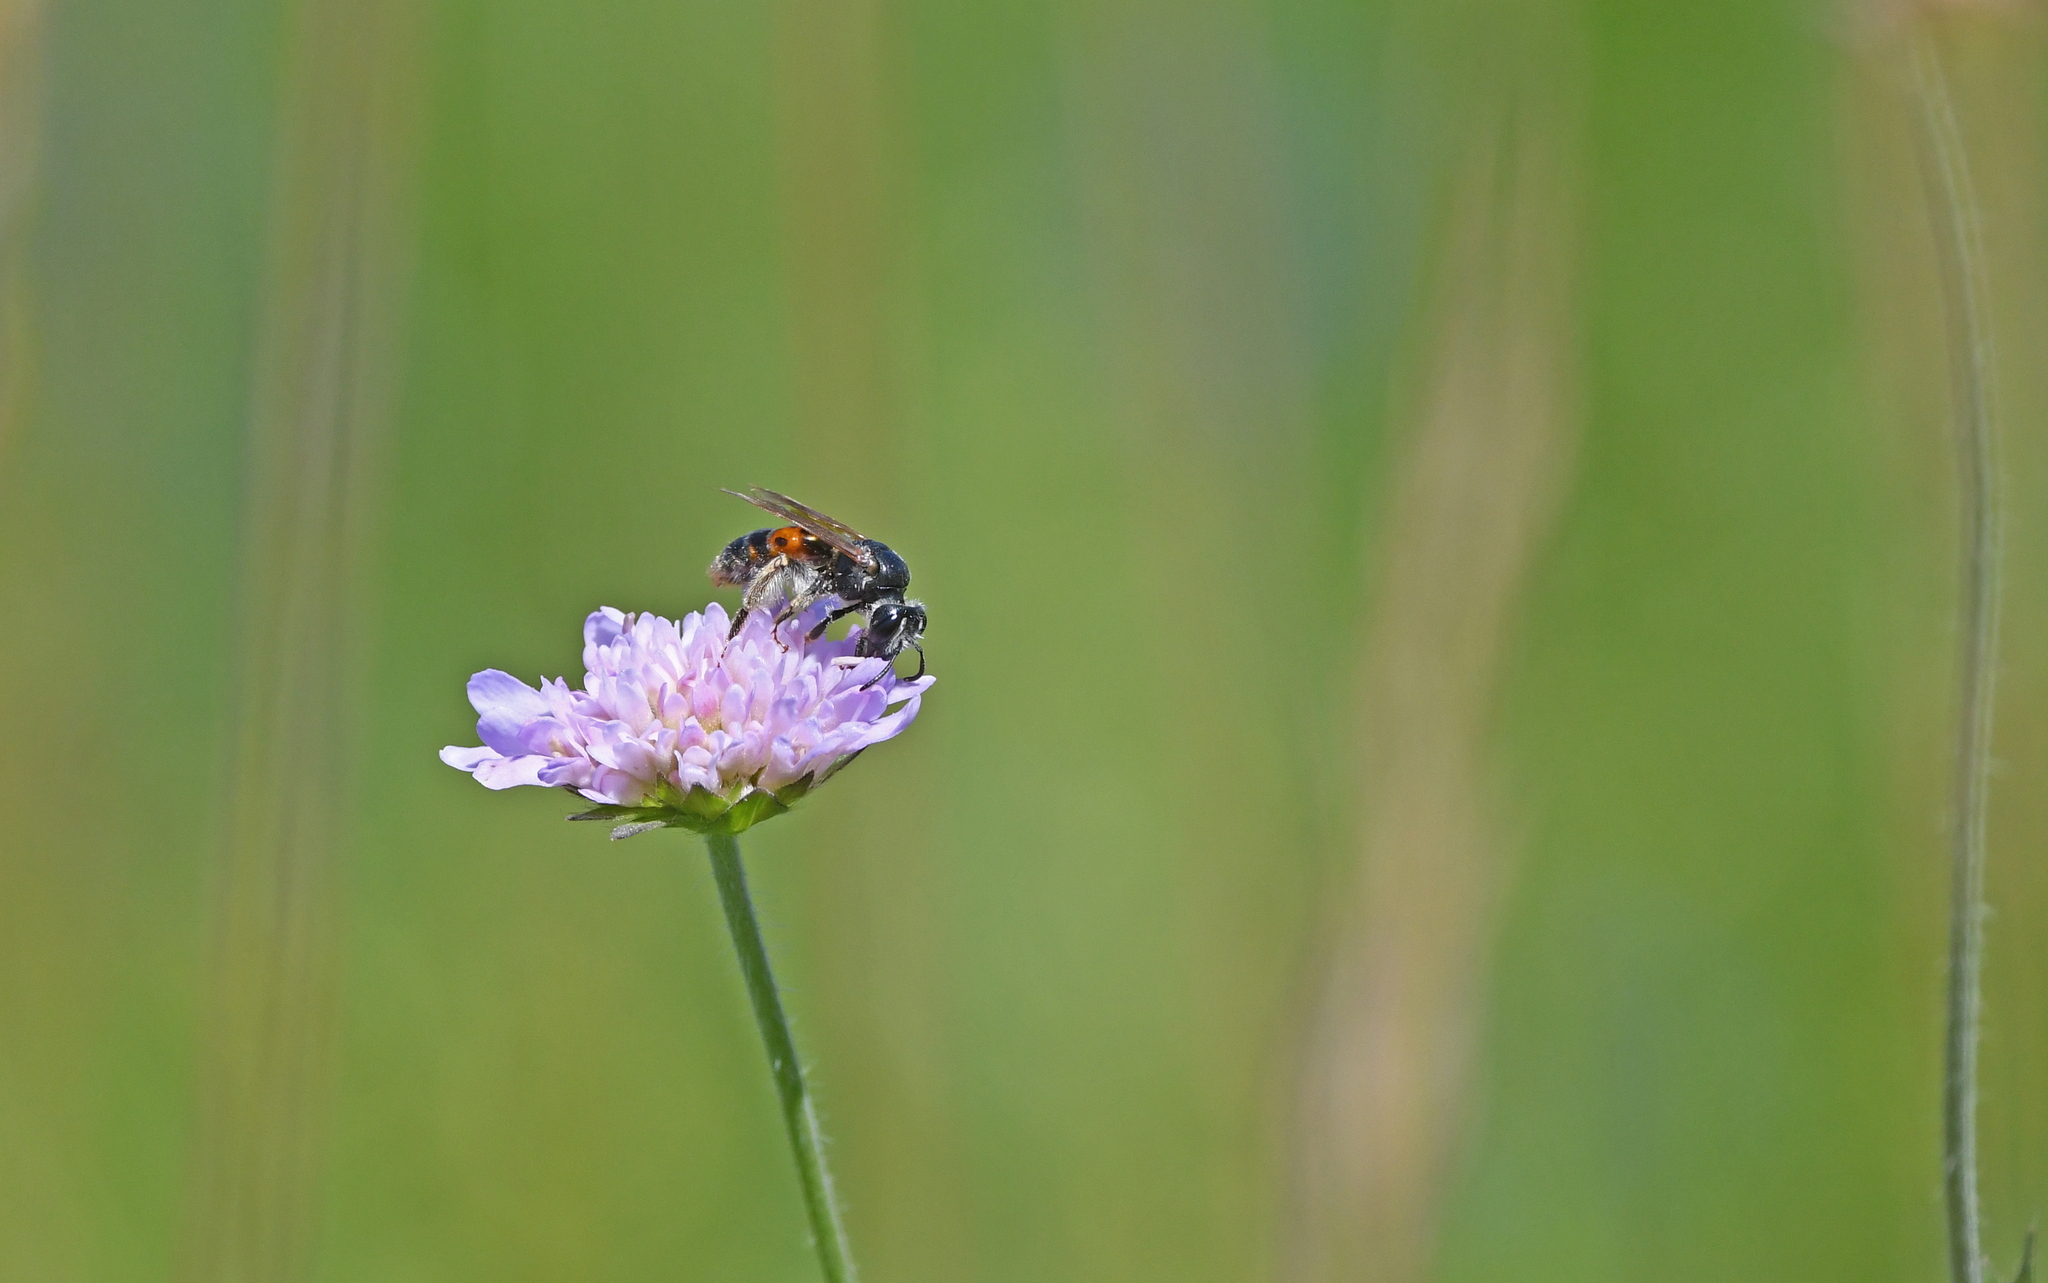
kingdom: Animalia
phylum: Arthropoda
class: Insecta
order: Hymenoptera
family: Andrenidae
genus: Andrena
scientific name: Andrena hattorfiana
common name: Large scabious mining bee
